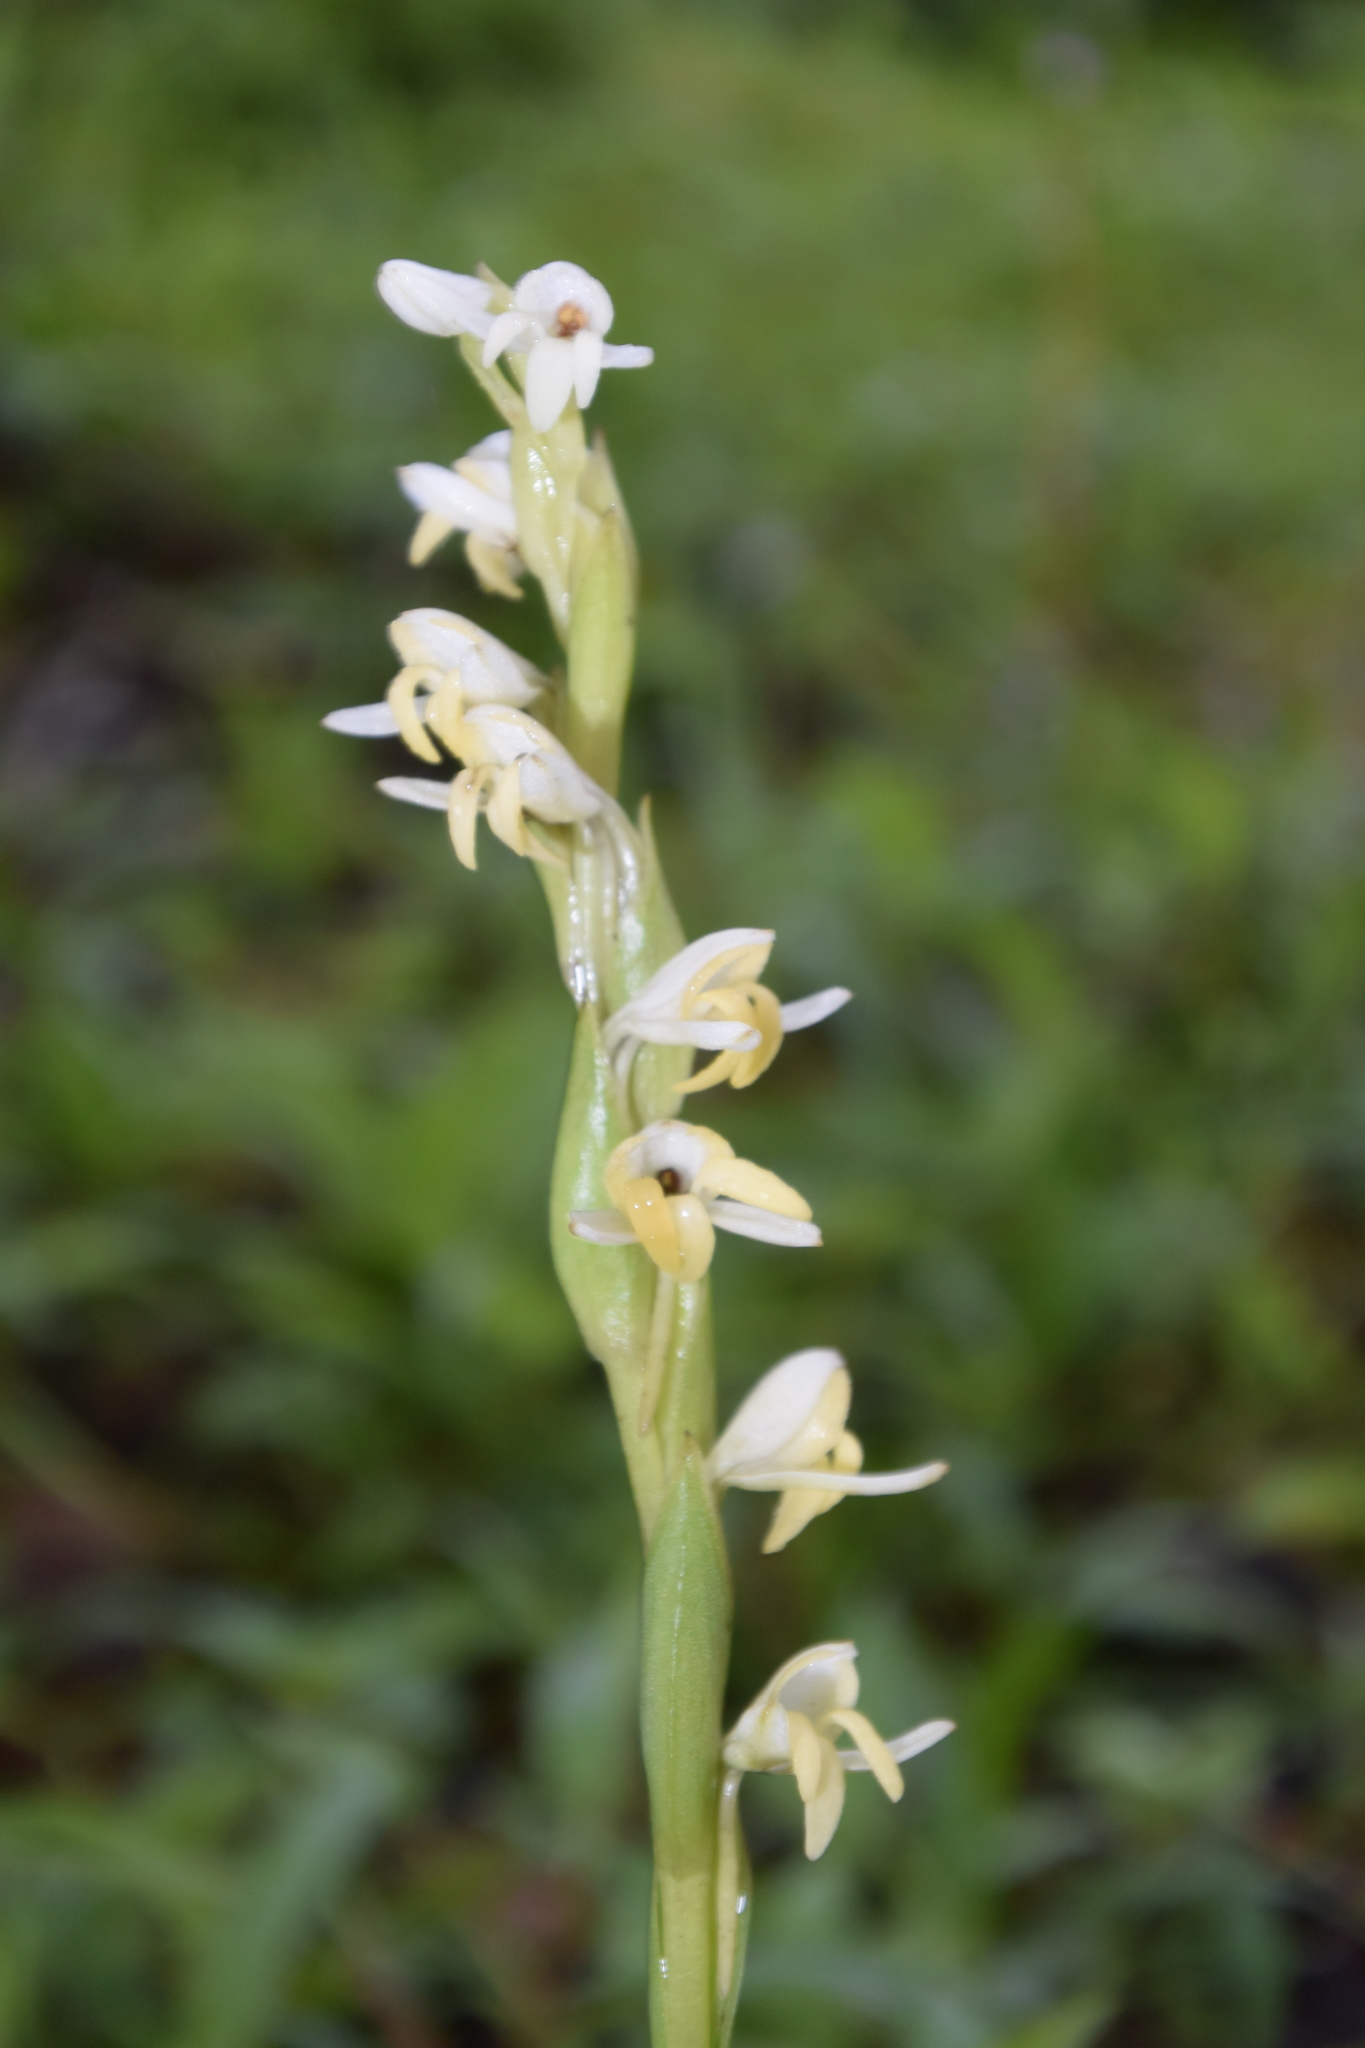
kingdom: Plantae
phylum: Tracheophyta
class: Liliopsida
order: Asparagales
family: Orchidaceae
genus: Habenaria
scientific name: Habenaria heyneana
